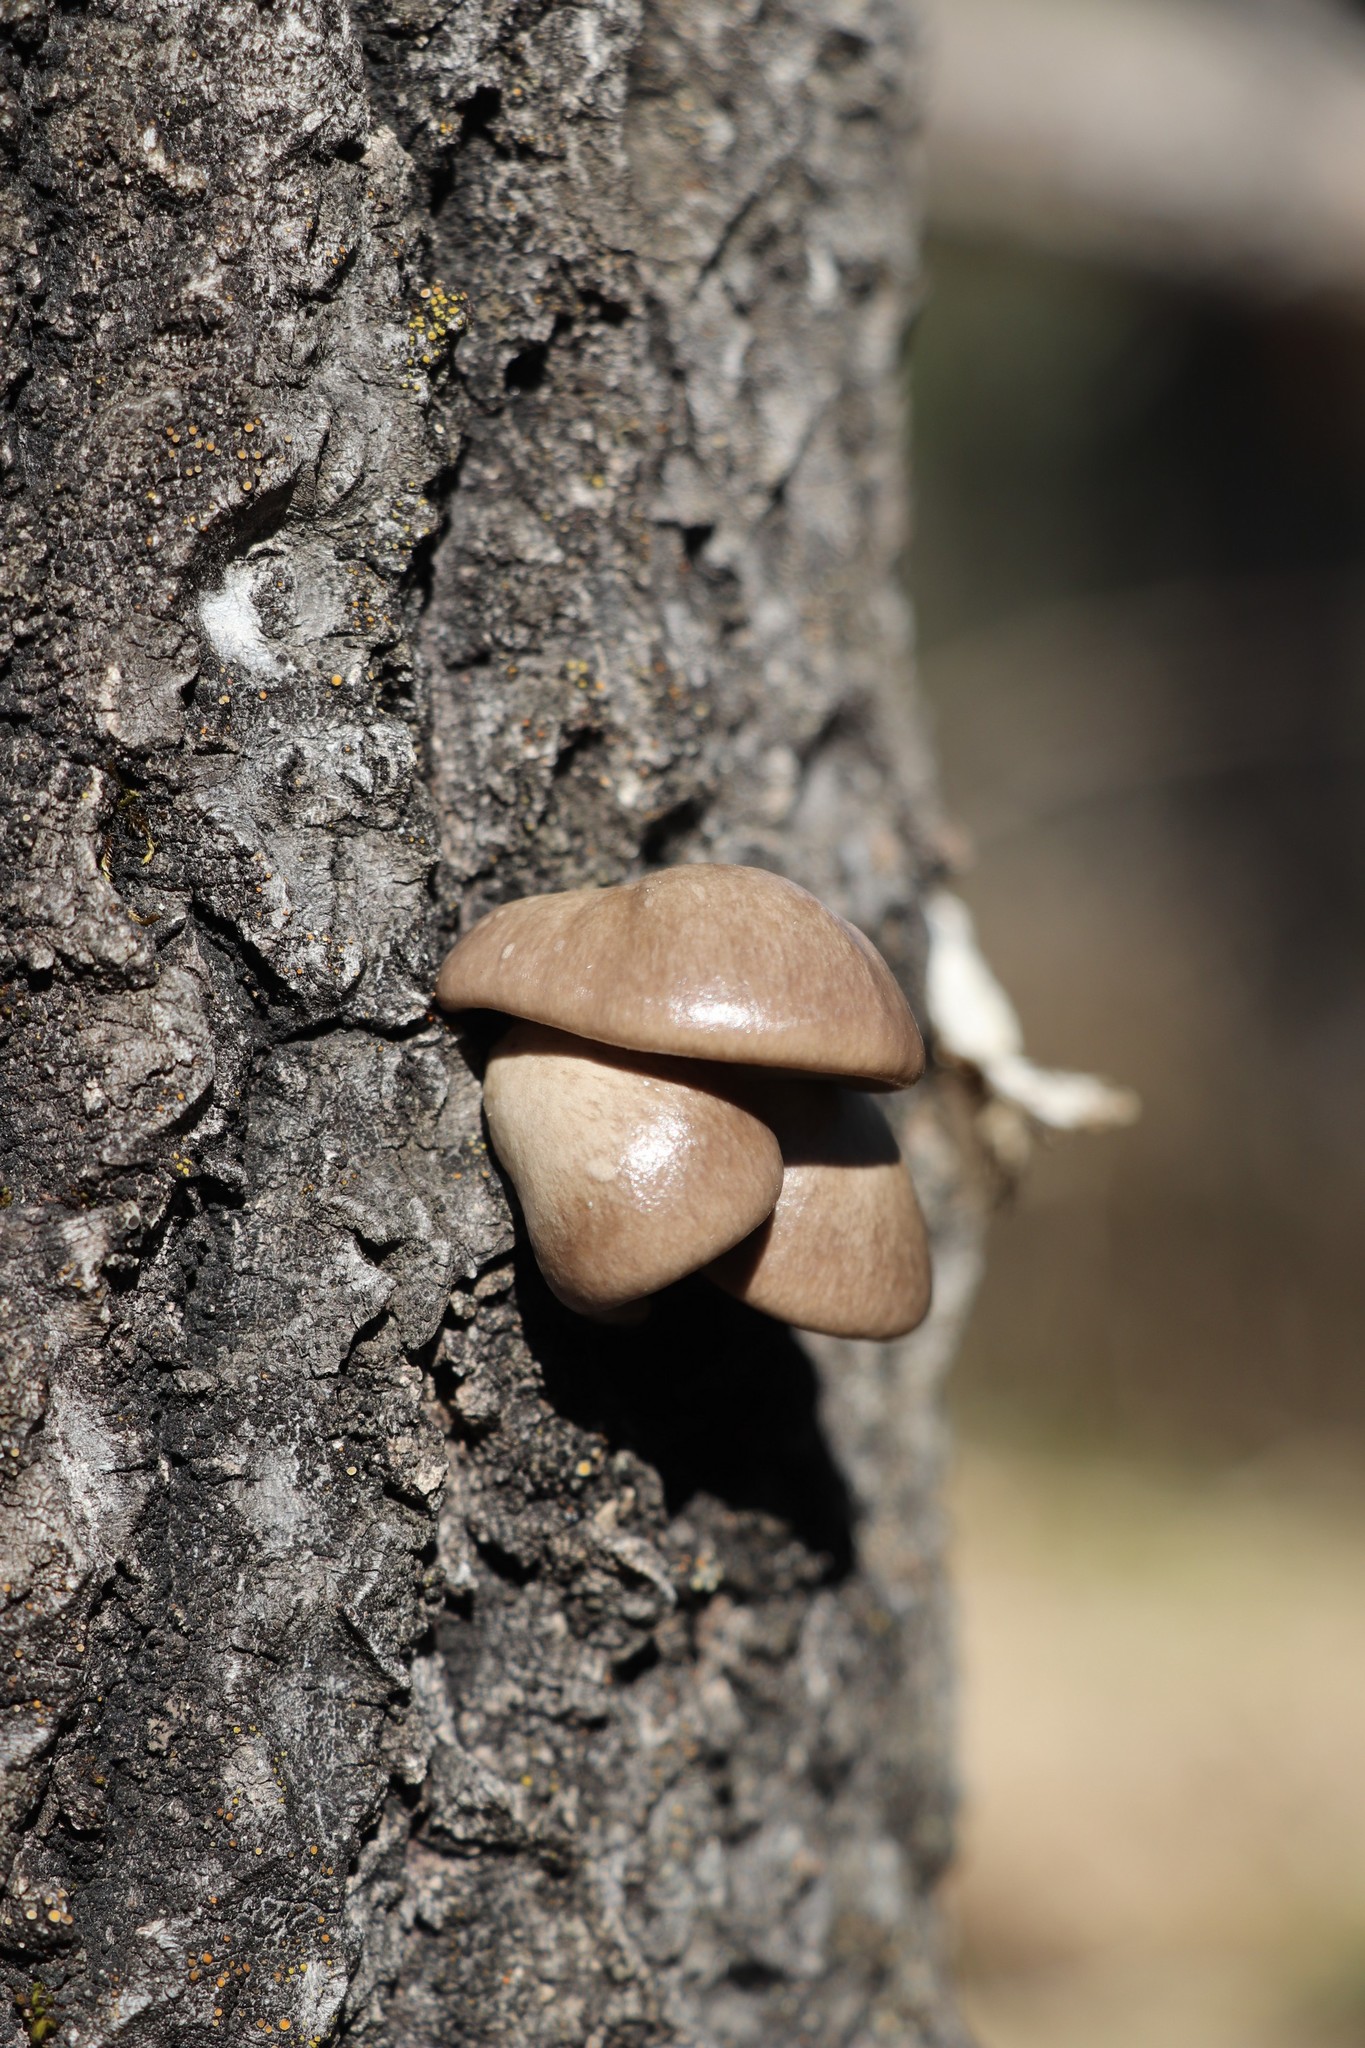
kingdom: Fungi
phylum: Basidiomycota
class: Agaricomycetes
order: Agaricales
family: Pleurotaceae
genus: Pleurotus
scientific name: Pleurotus calyptratus
